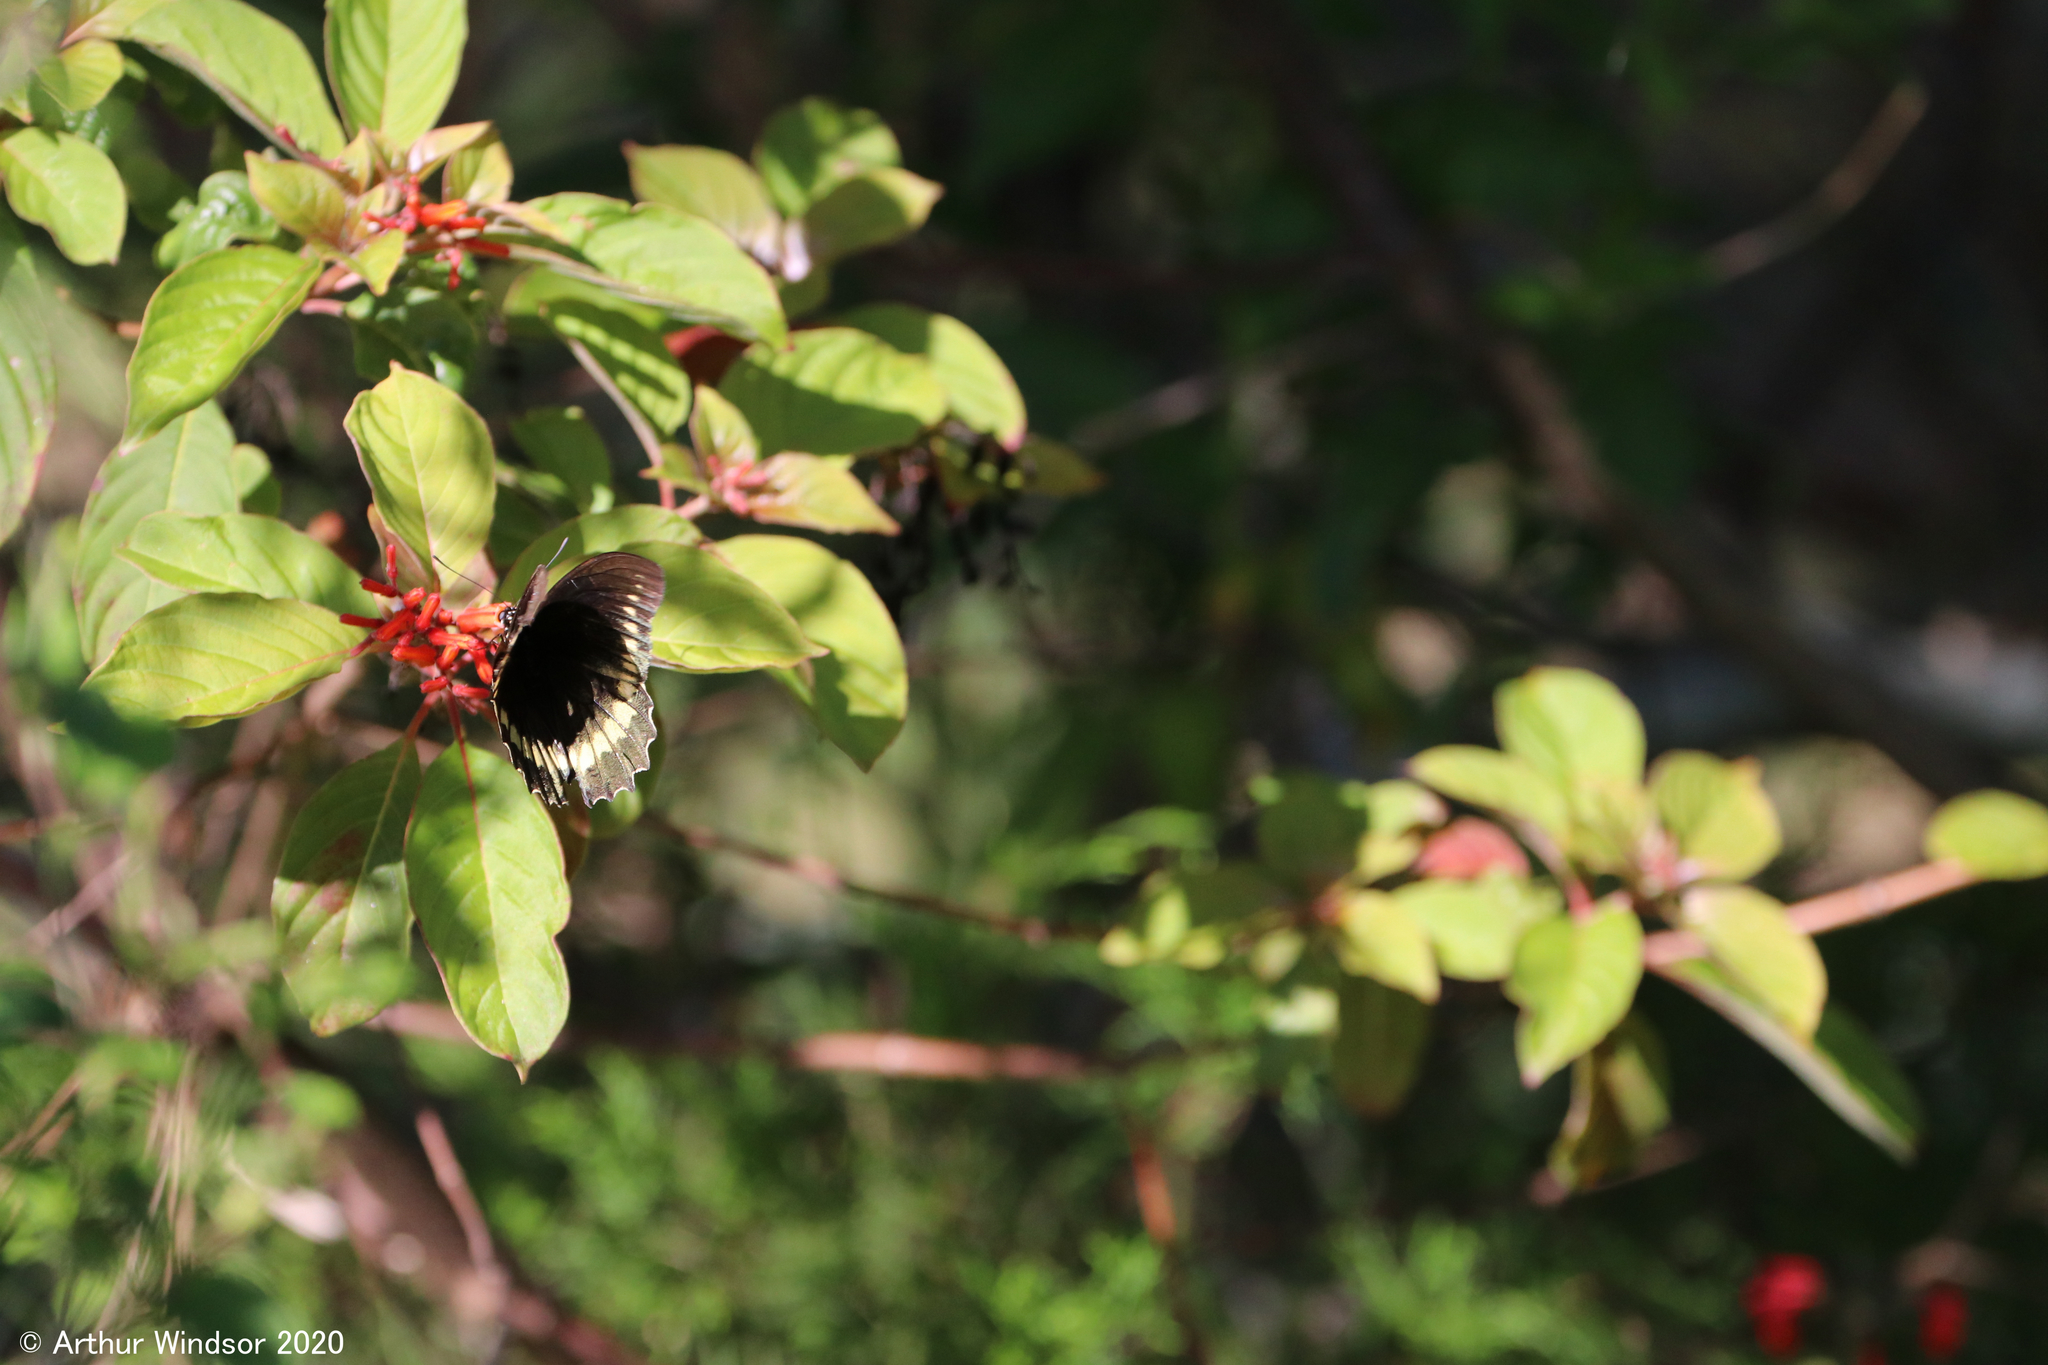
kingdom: Animalia
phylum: Arthropoda
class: Insecta
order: Lepidoptera
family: Papilionidae
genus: Battus
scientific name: Battus polydamas
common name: Polydamas swallowtail
